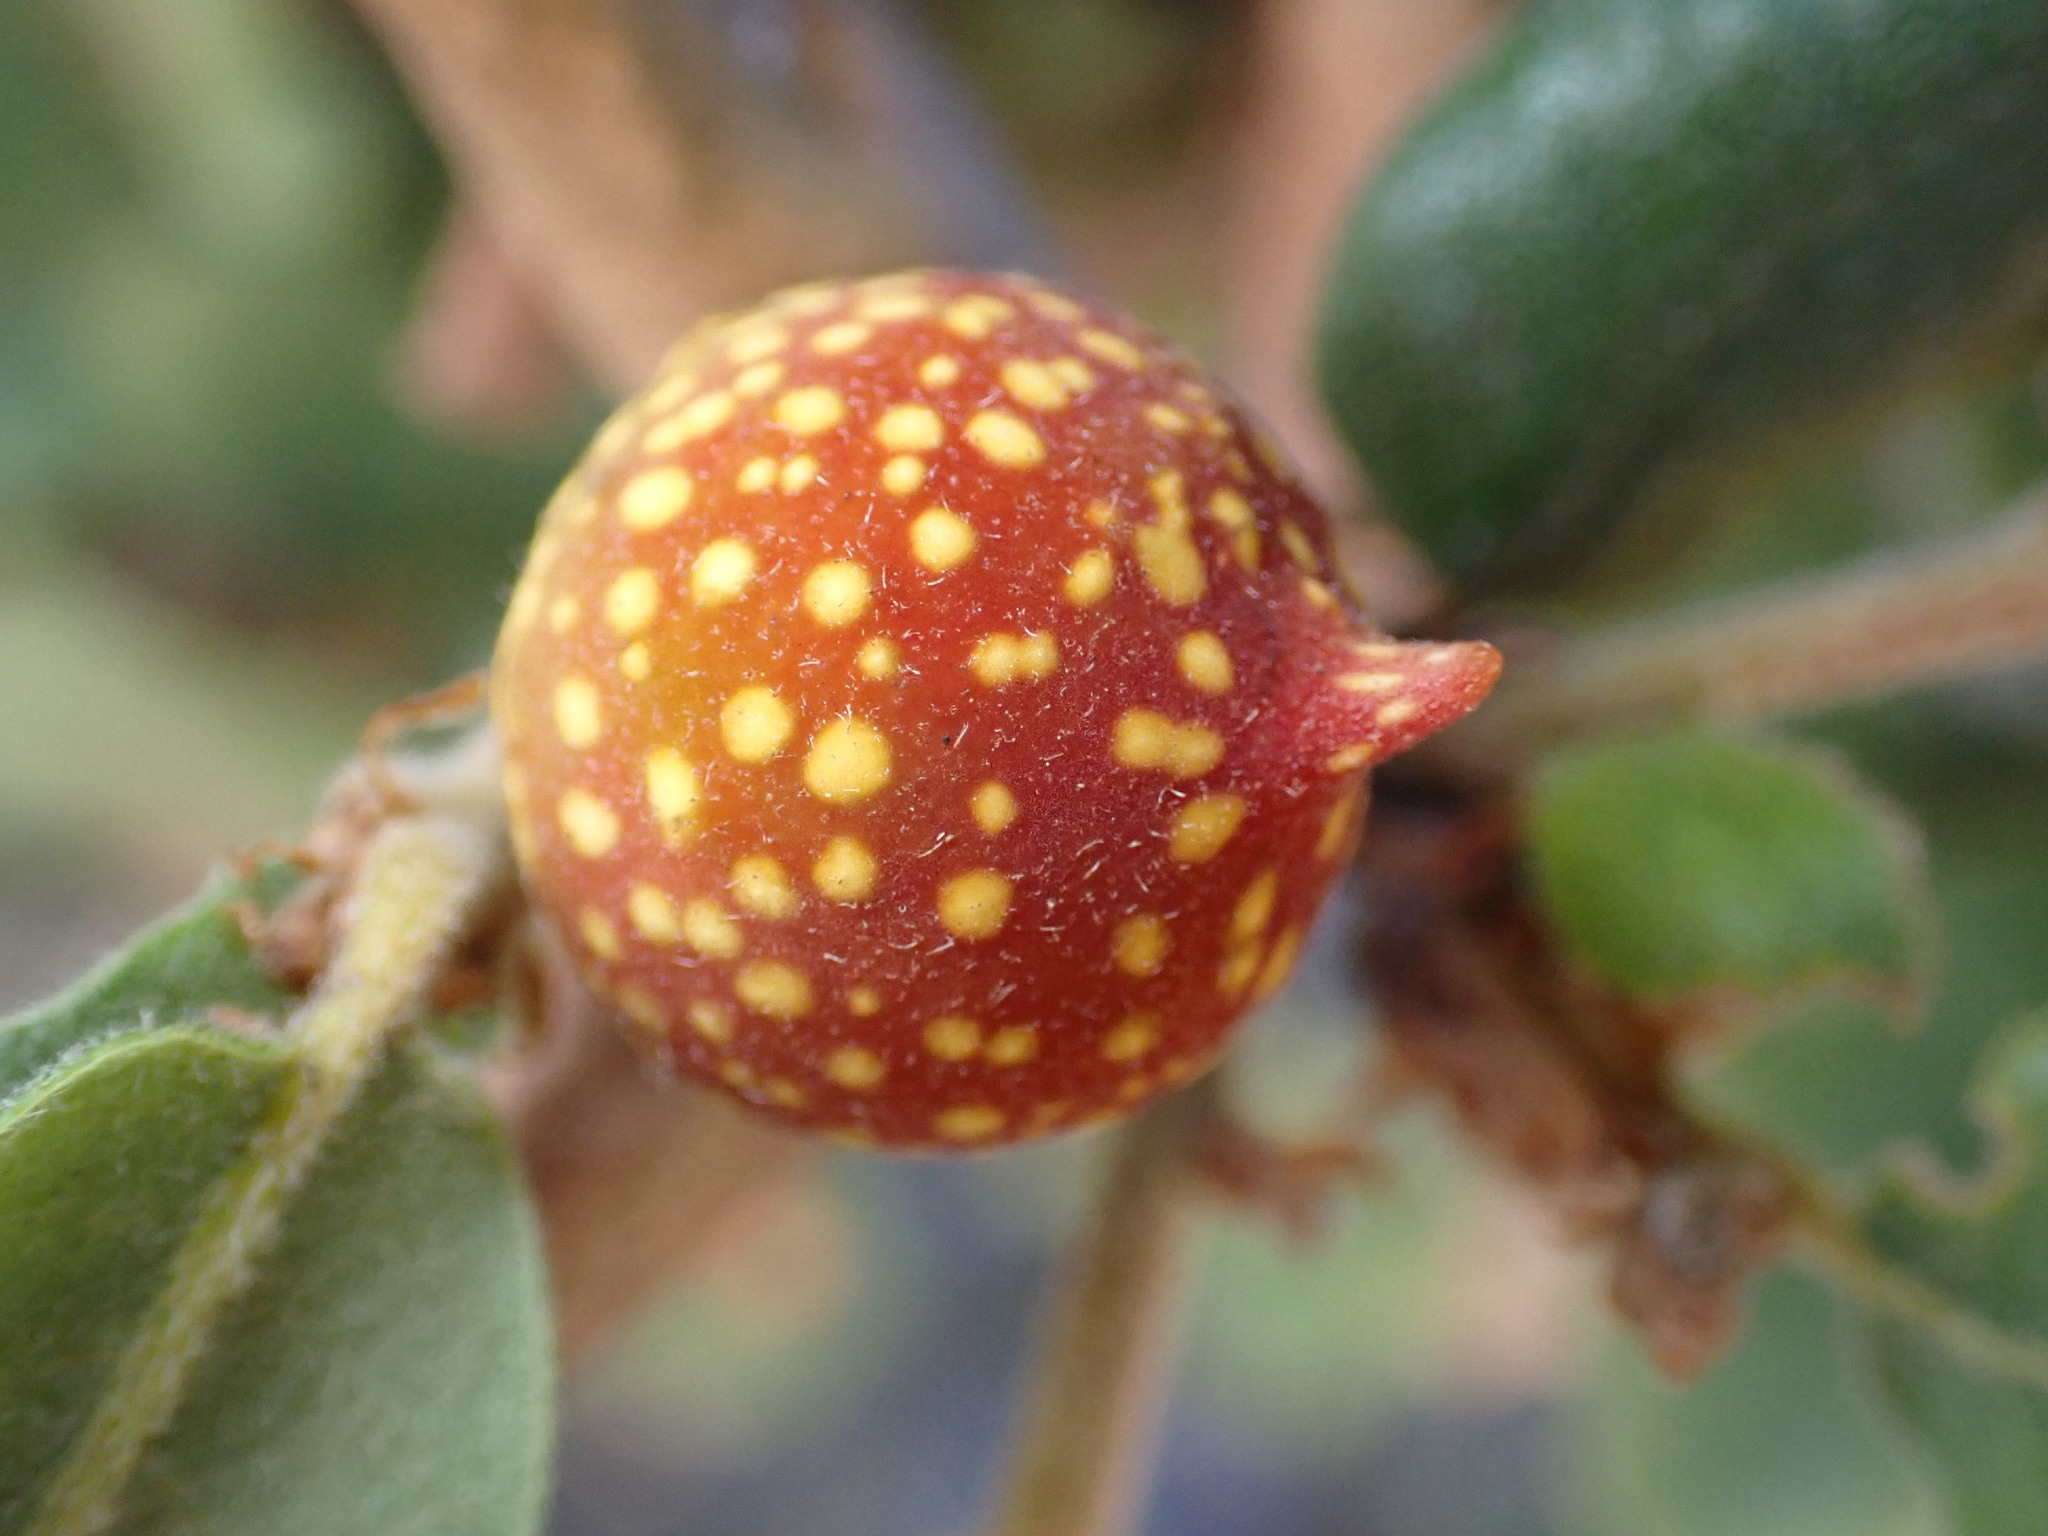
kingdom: Animalia
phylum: Arthropoda
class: Insecta
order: Hymenoptera
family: Cynipidae
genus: Burnettweldia
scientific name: Burnettweldia
